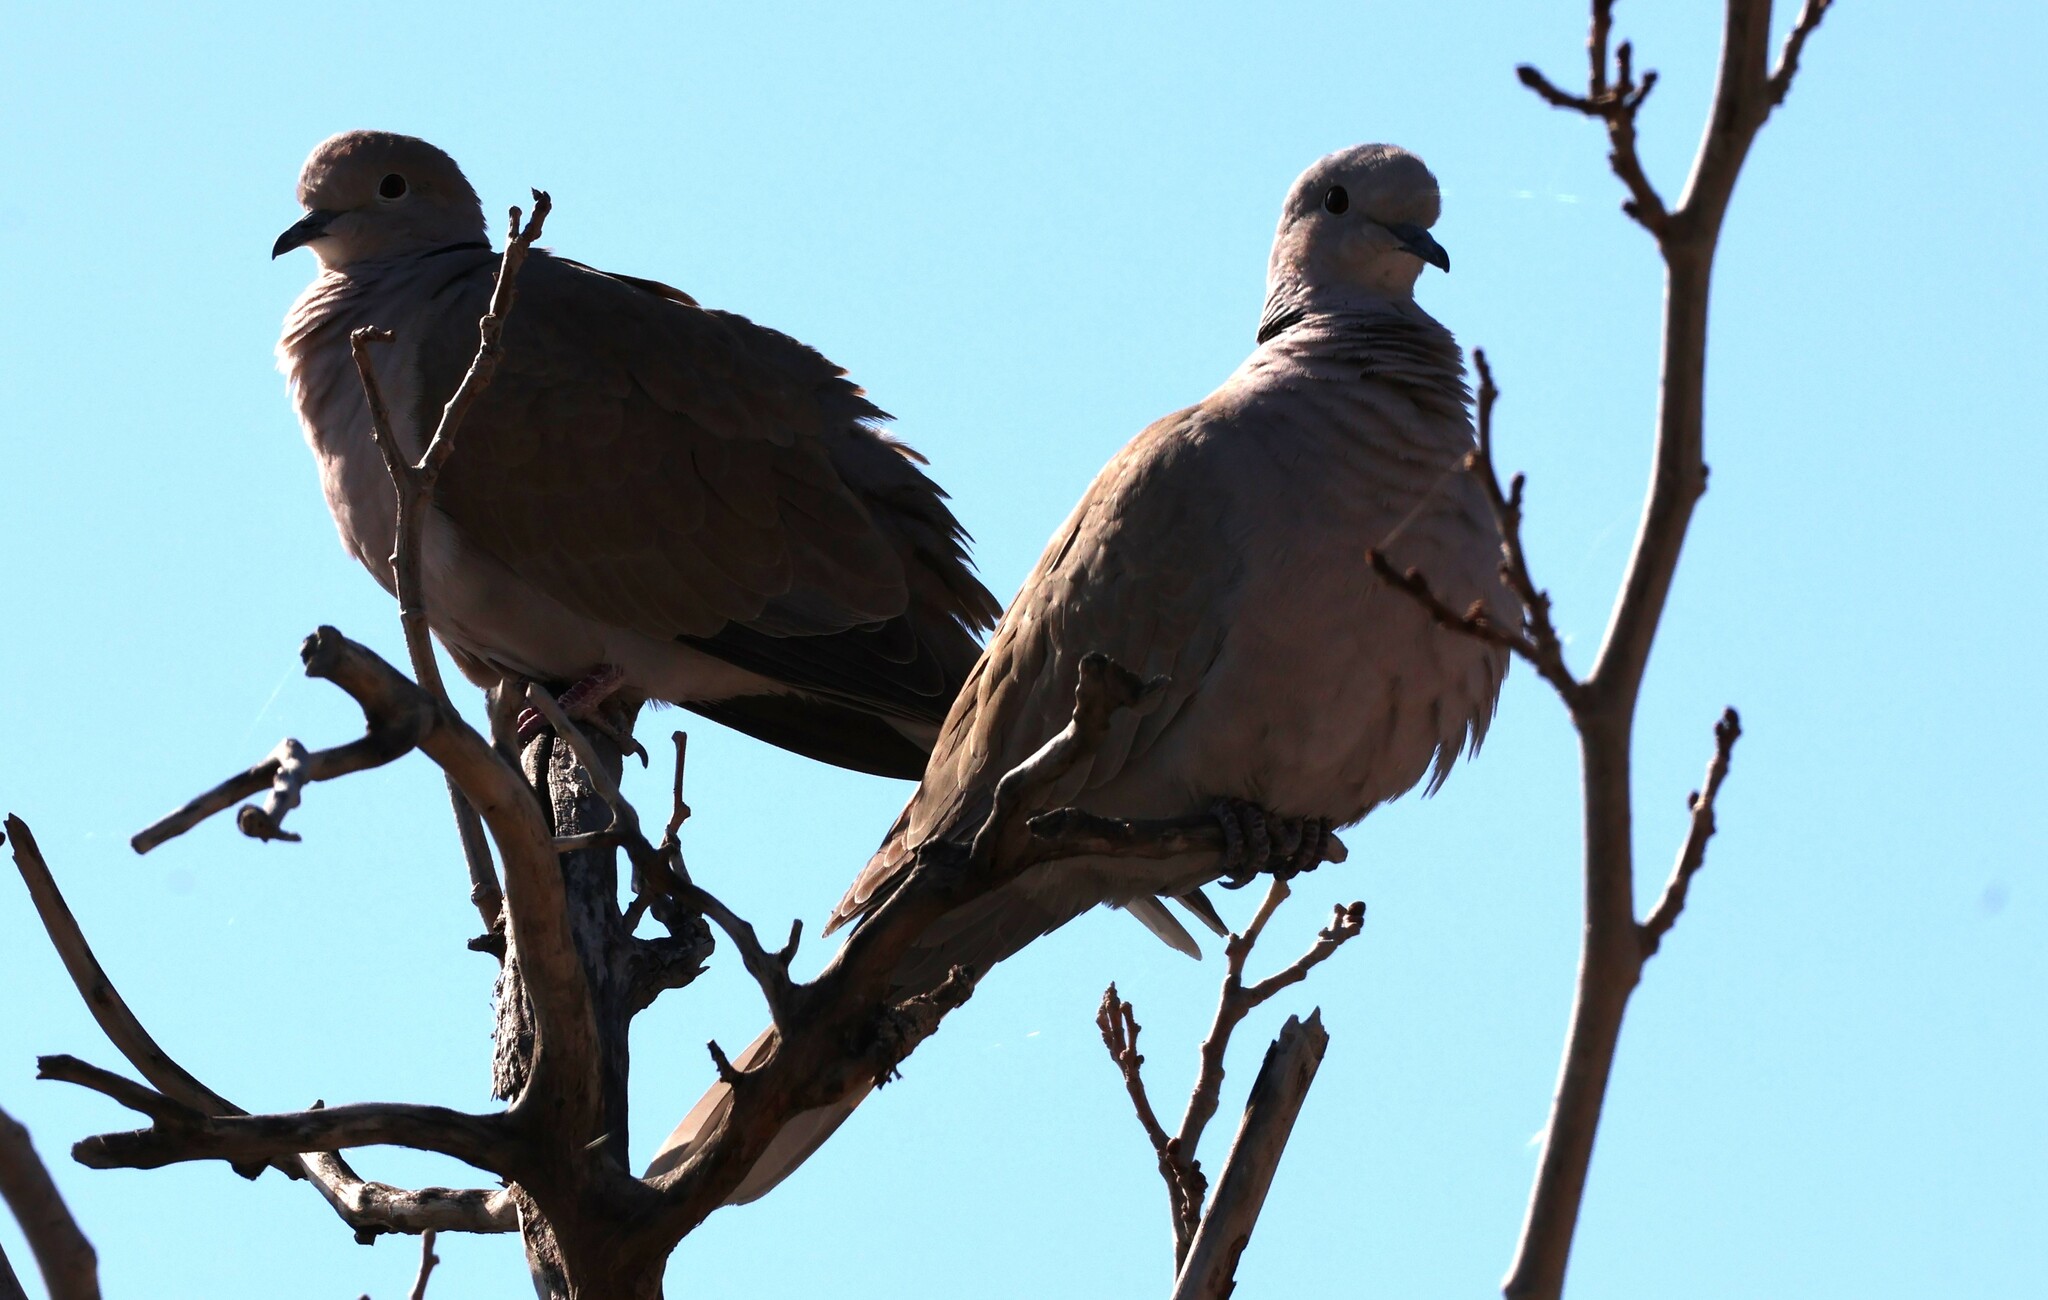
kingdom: Animalia
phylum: Chordata
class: Aves
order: Columbiformes
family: Columbidae
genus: Streptopelia
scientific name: Streptopelia decaocto
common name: Eurasian collared dove
